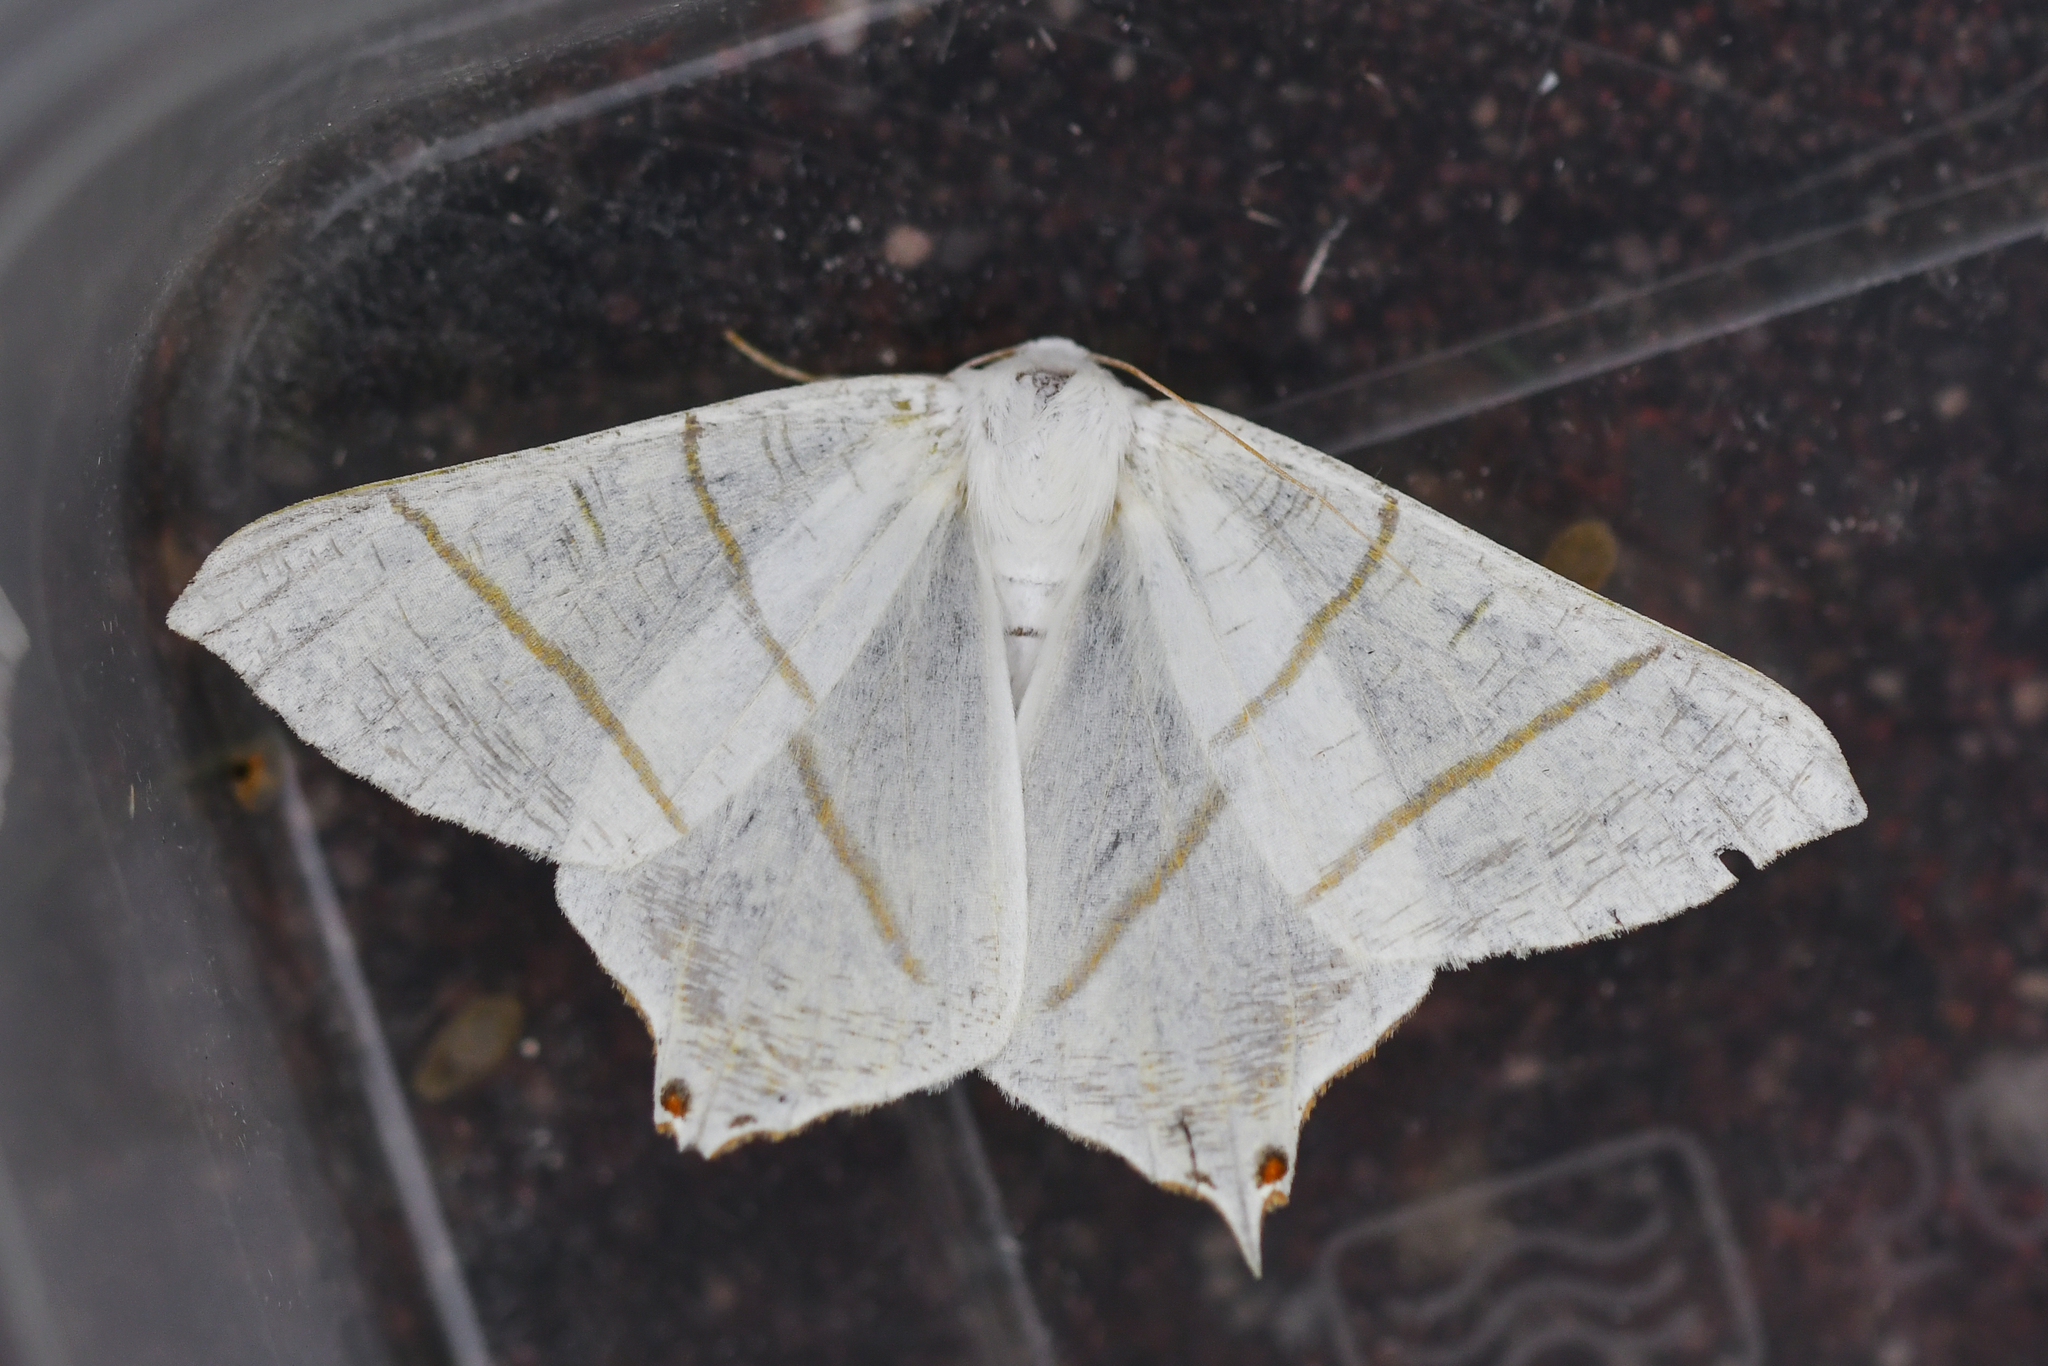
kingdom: Animalia
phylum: Arthropoda
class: Insecta
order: Lepidoptera
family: Geometridae
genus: Ourapteryx
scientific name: Ourapteryx sambucaria
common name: Swallow-tailed moth
